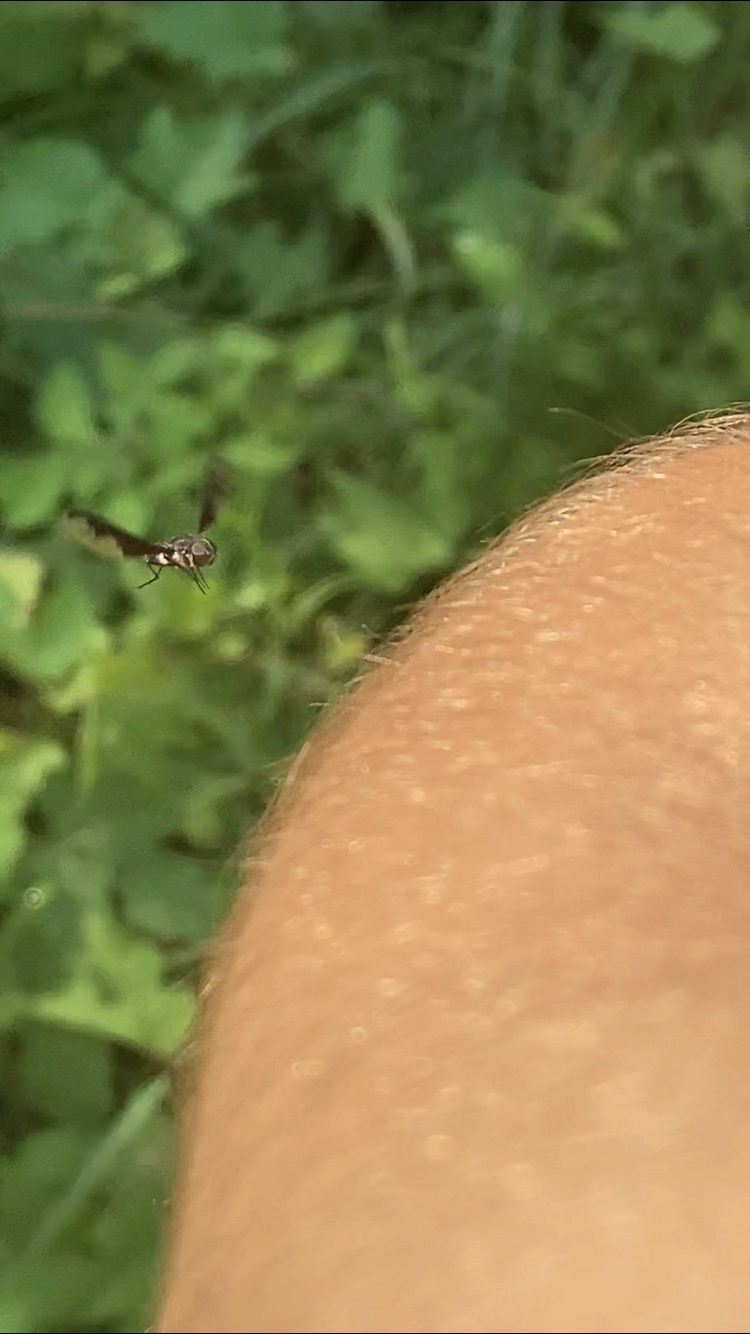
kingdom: Animalia
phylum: Arthropoda
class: Insecta
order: Diptera
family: Bombyliidae
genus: Anthrax
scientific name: Anthrax argyropygus
